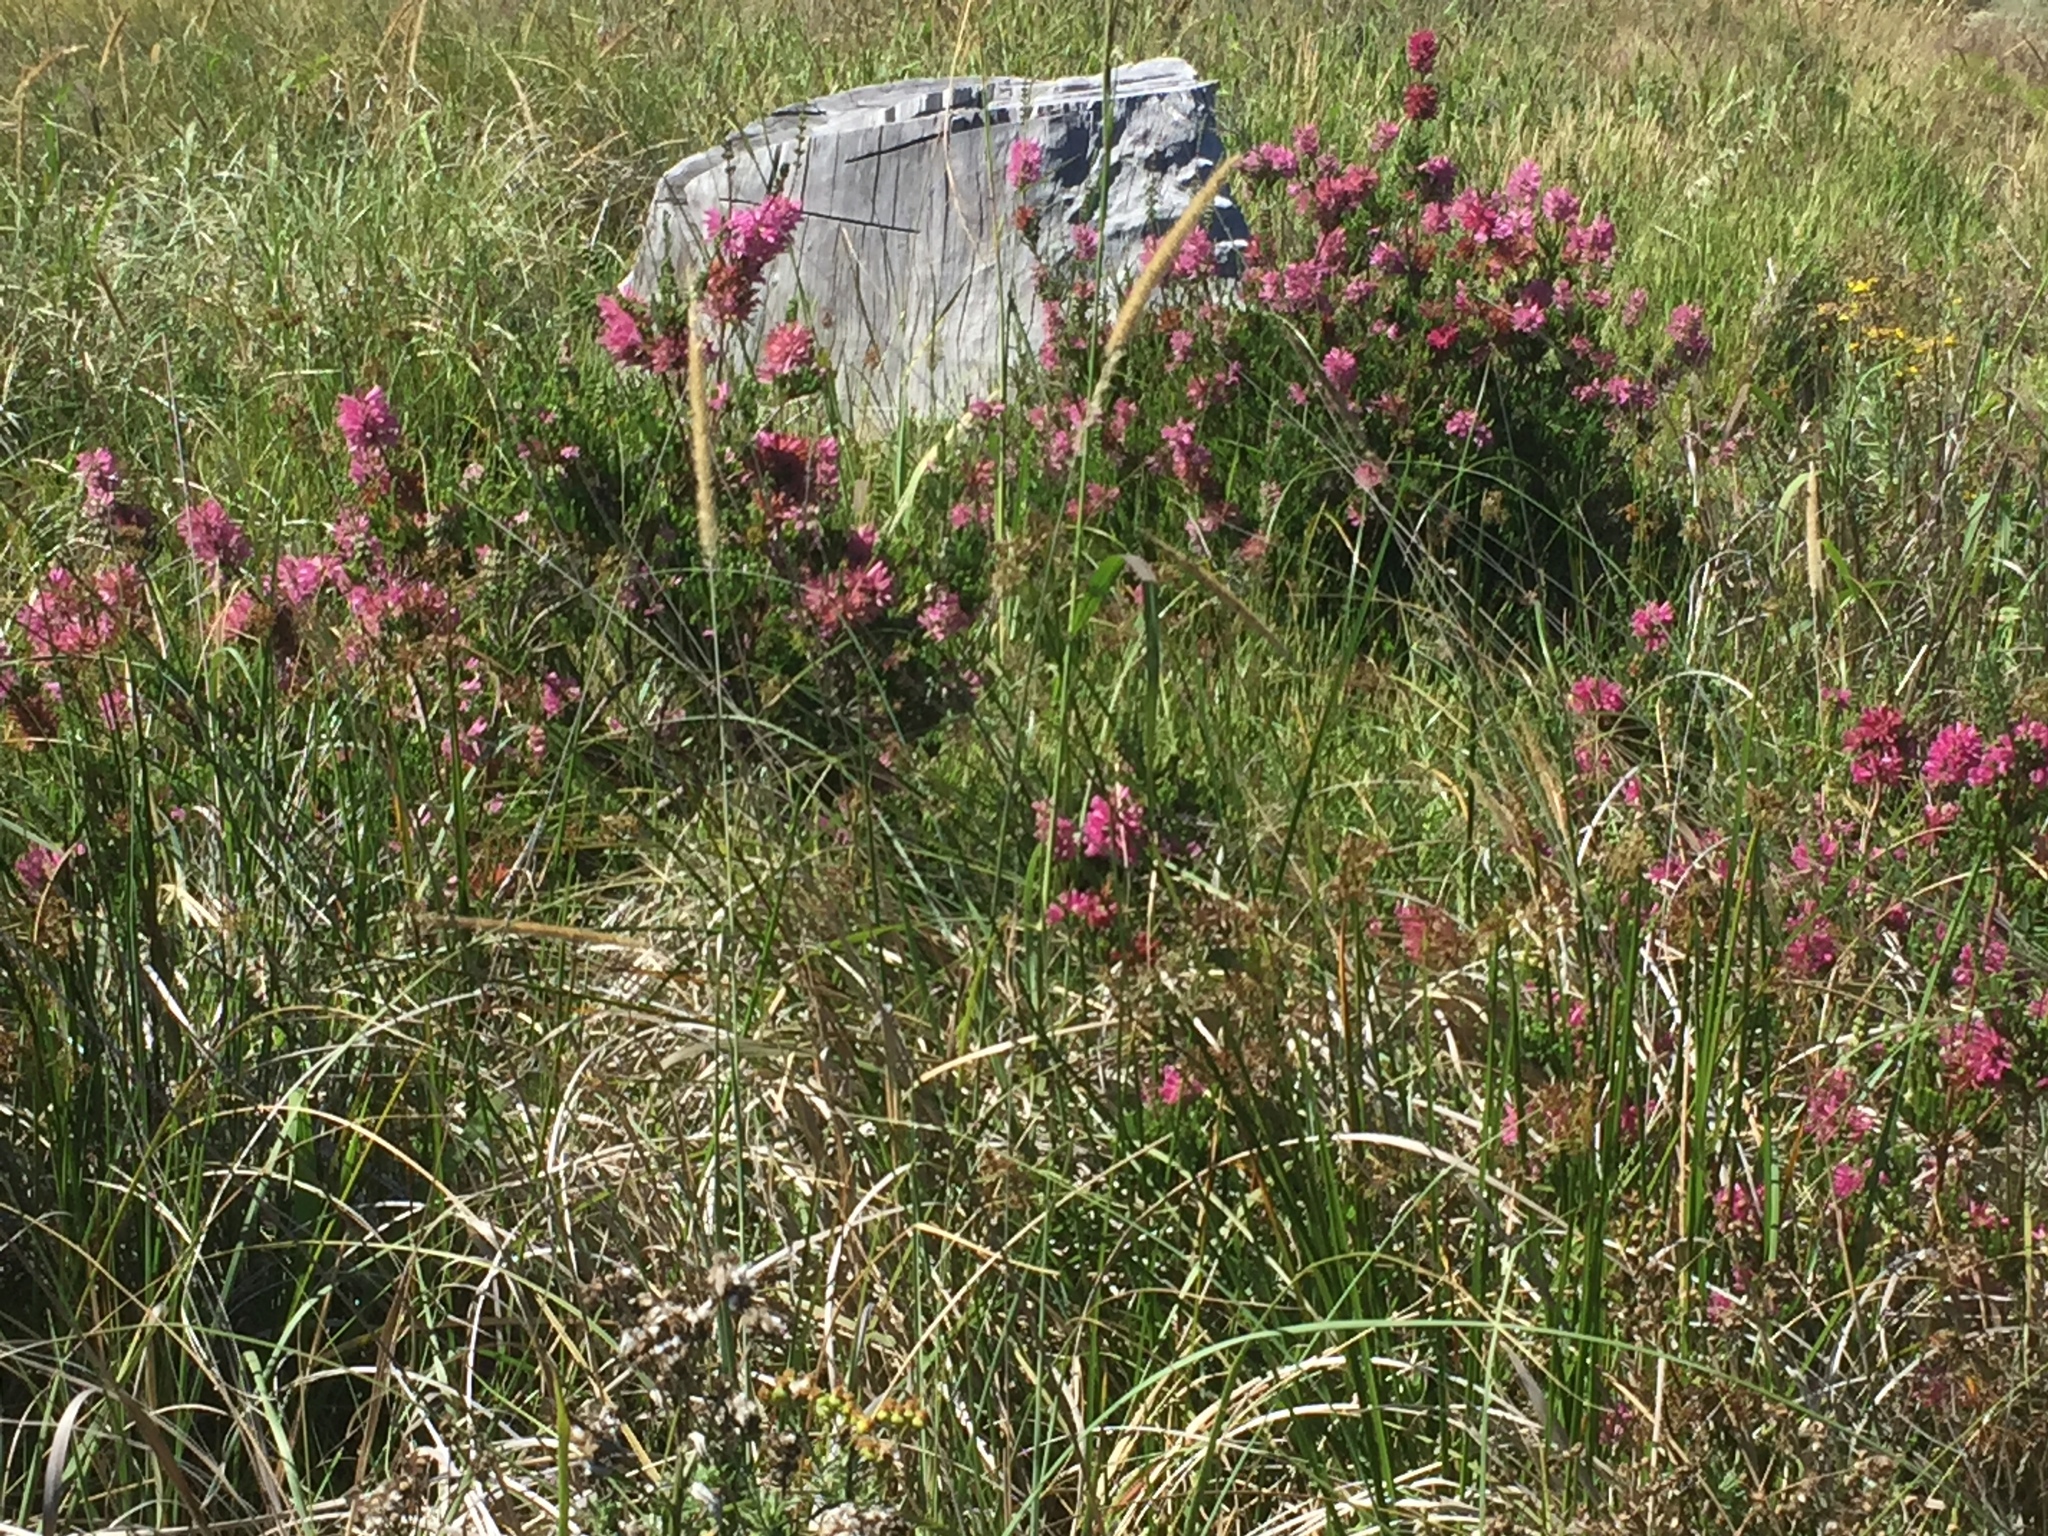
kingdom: Plantae
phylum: Tracheophyta
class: Magnoliopsida
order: Ericales
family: Ericaceae
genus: Erica
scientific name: Erica verticillata
